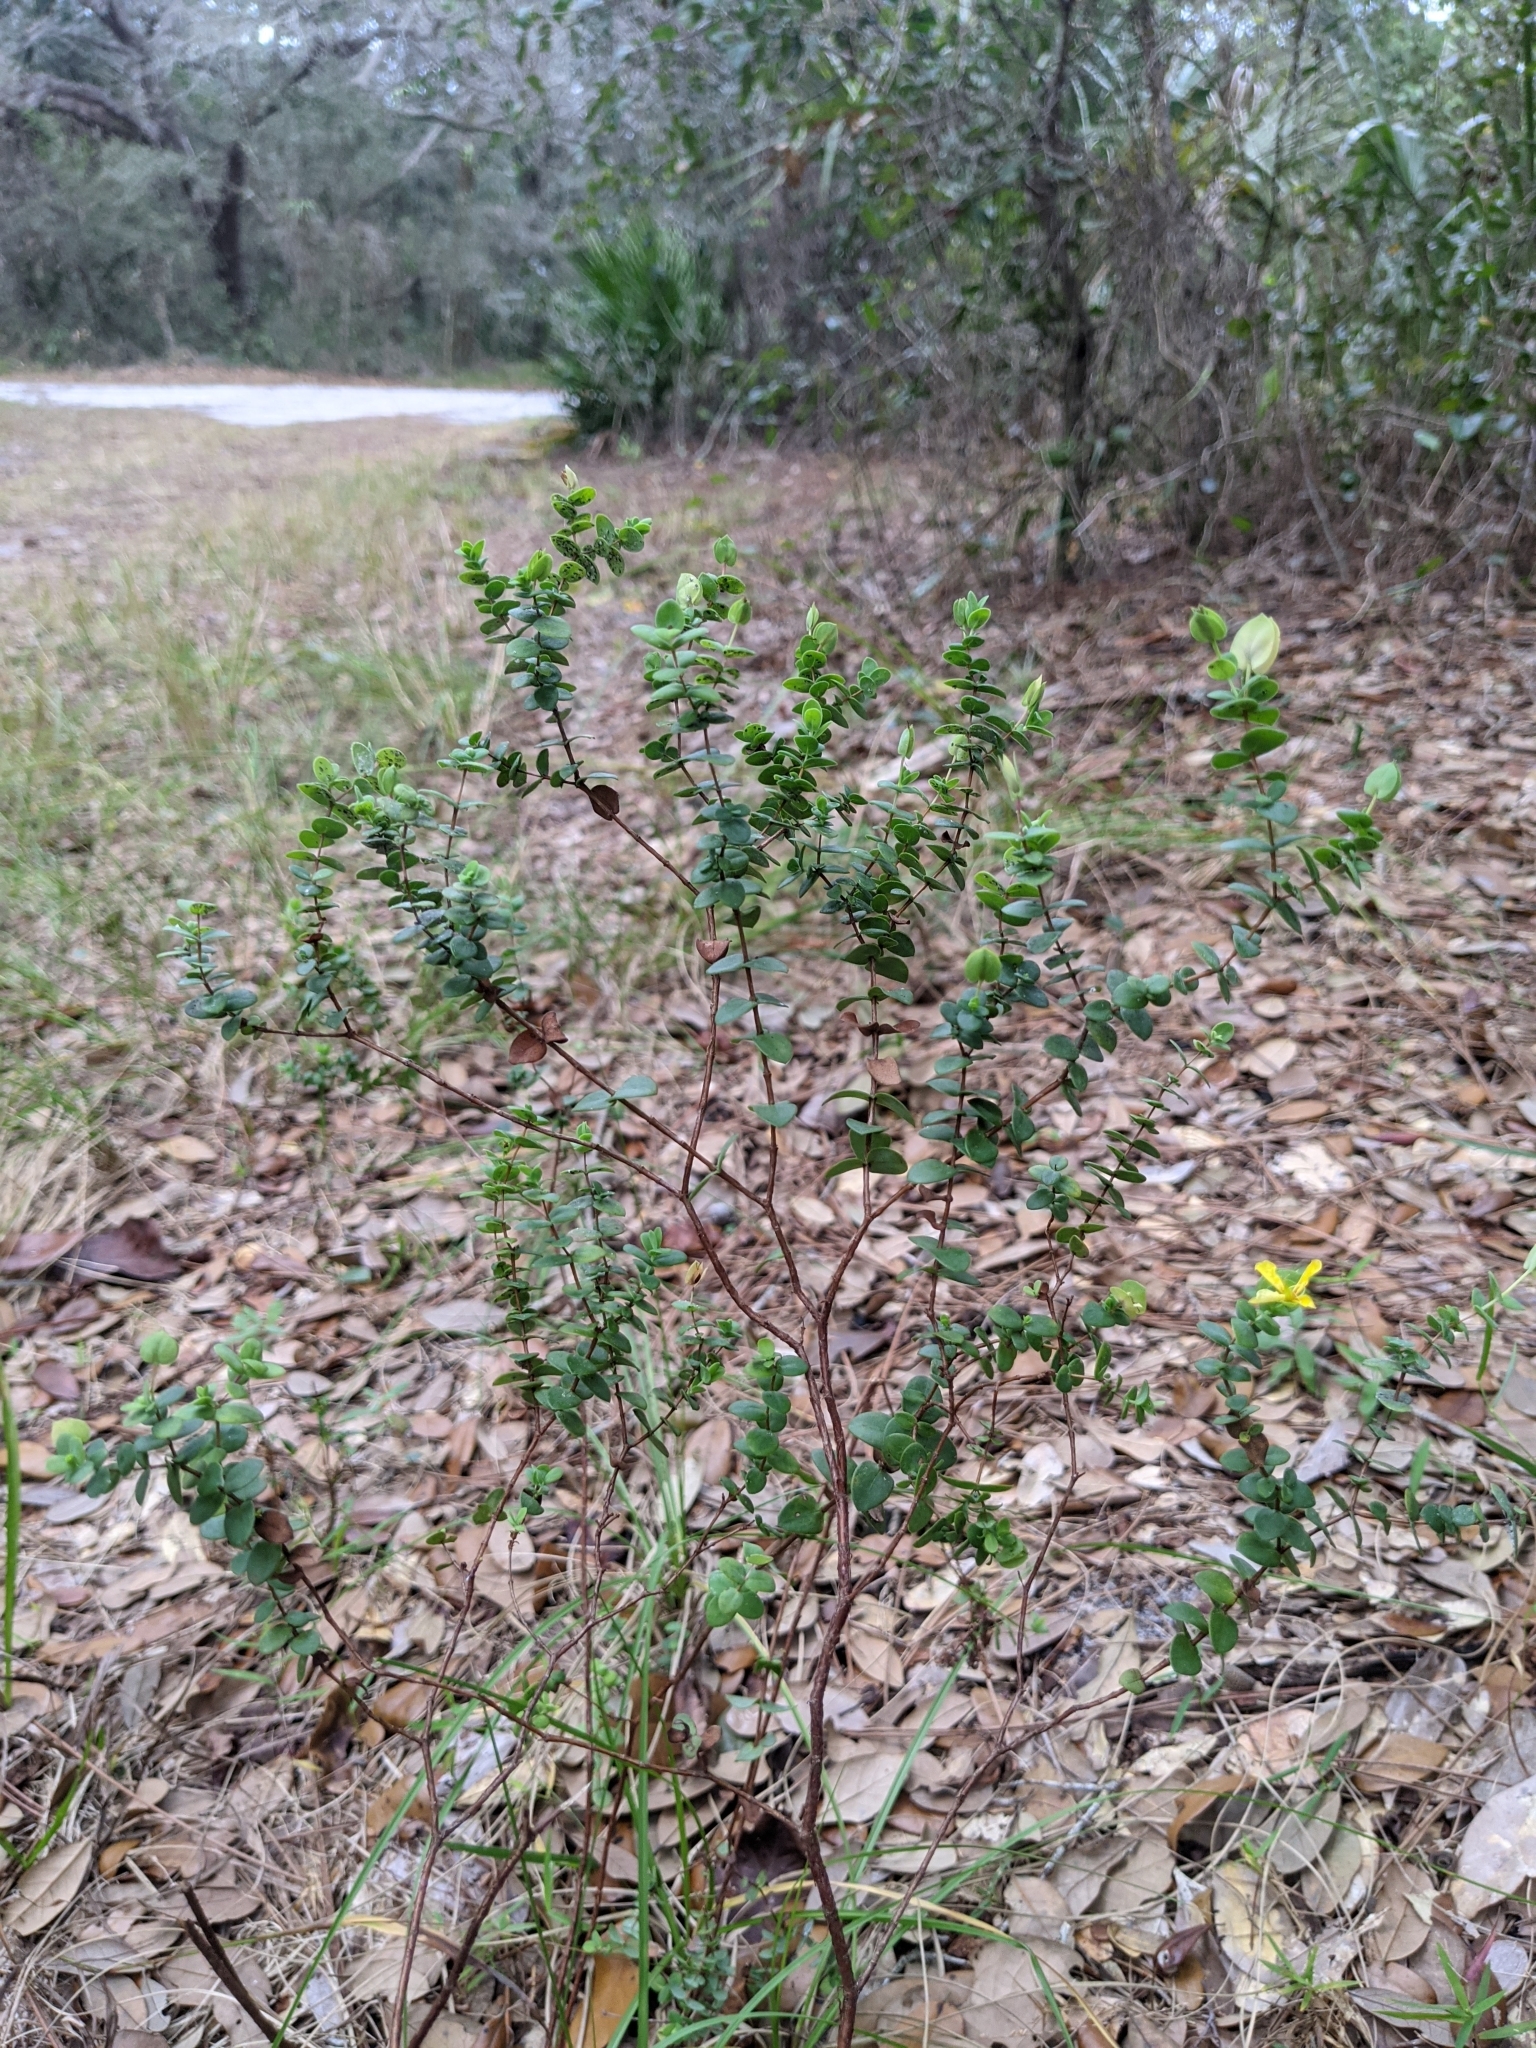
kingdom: Plantae
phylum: Tracheophyta
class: Magnoliopsida
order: Malpighiales
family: Hypericaceae
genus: Hypericum
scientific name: Hypericum tetrapetalum
